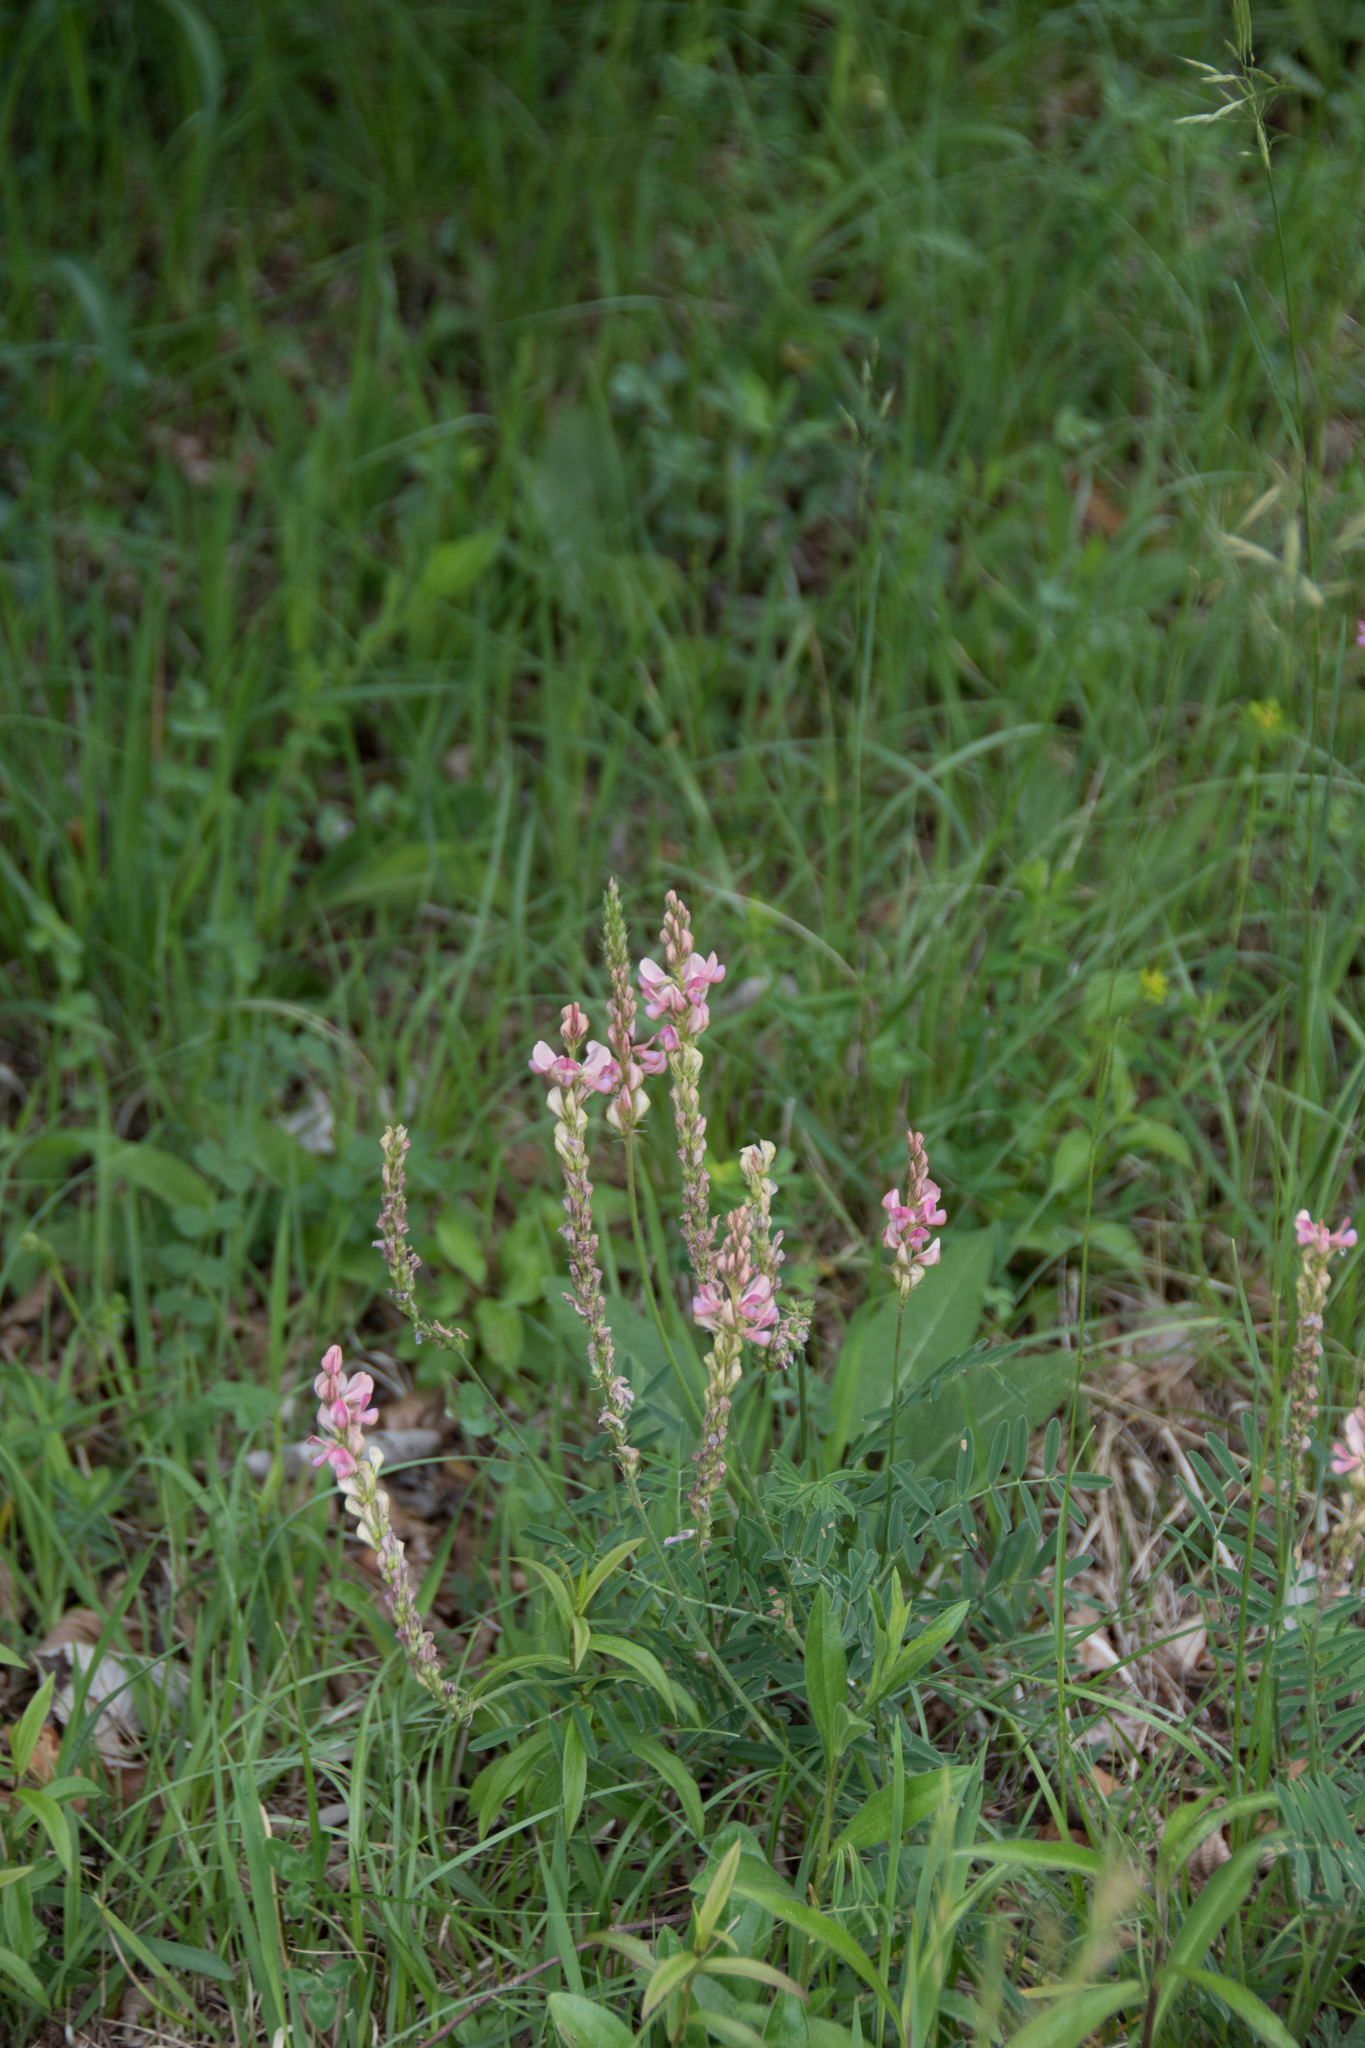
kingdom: Plantae
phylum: Tracheophyta
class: Magnoliopsida
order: Fabales
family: Fabaceae
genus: Onobrychis
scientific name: Onobrychis viciifolia
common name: Sainfoin
